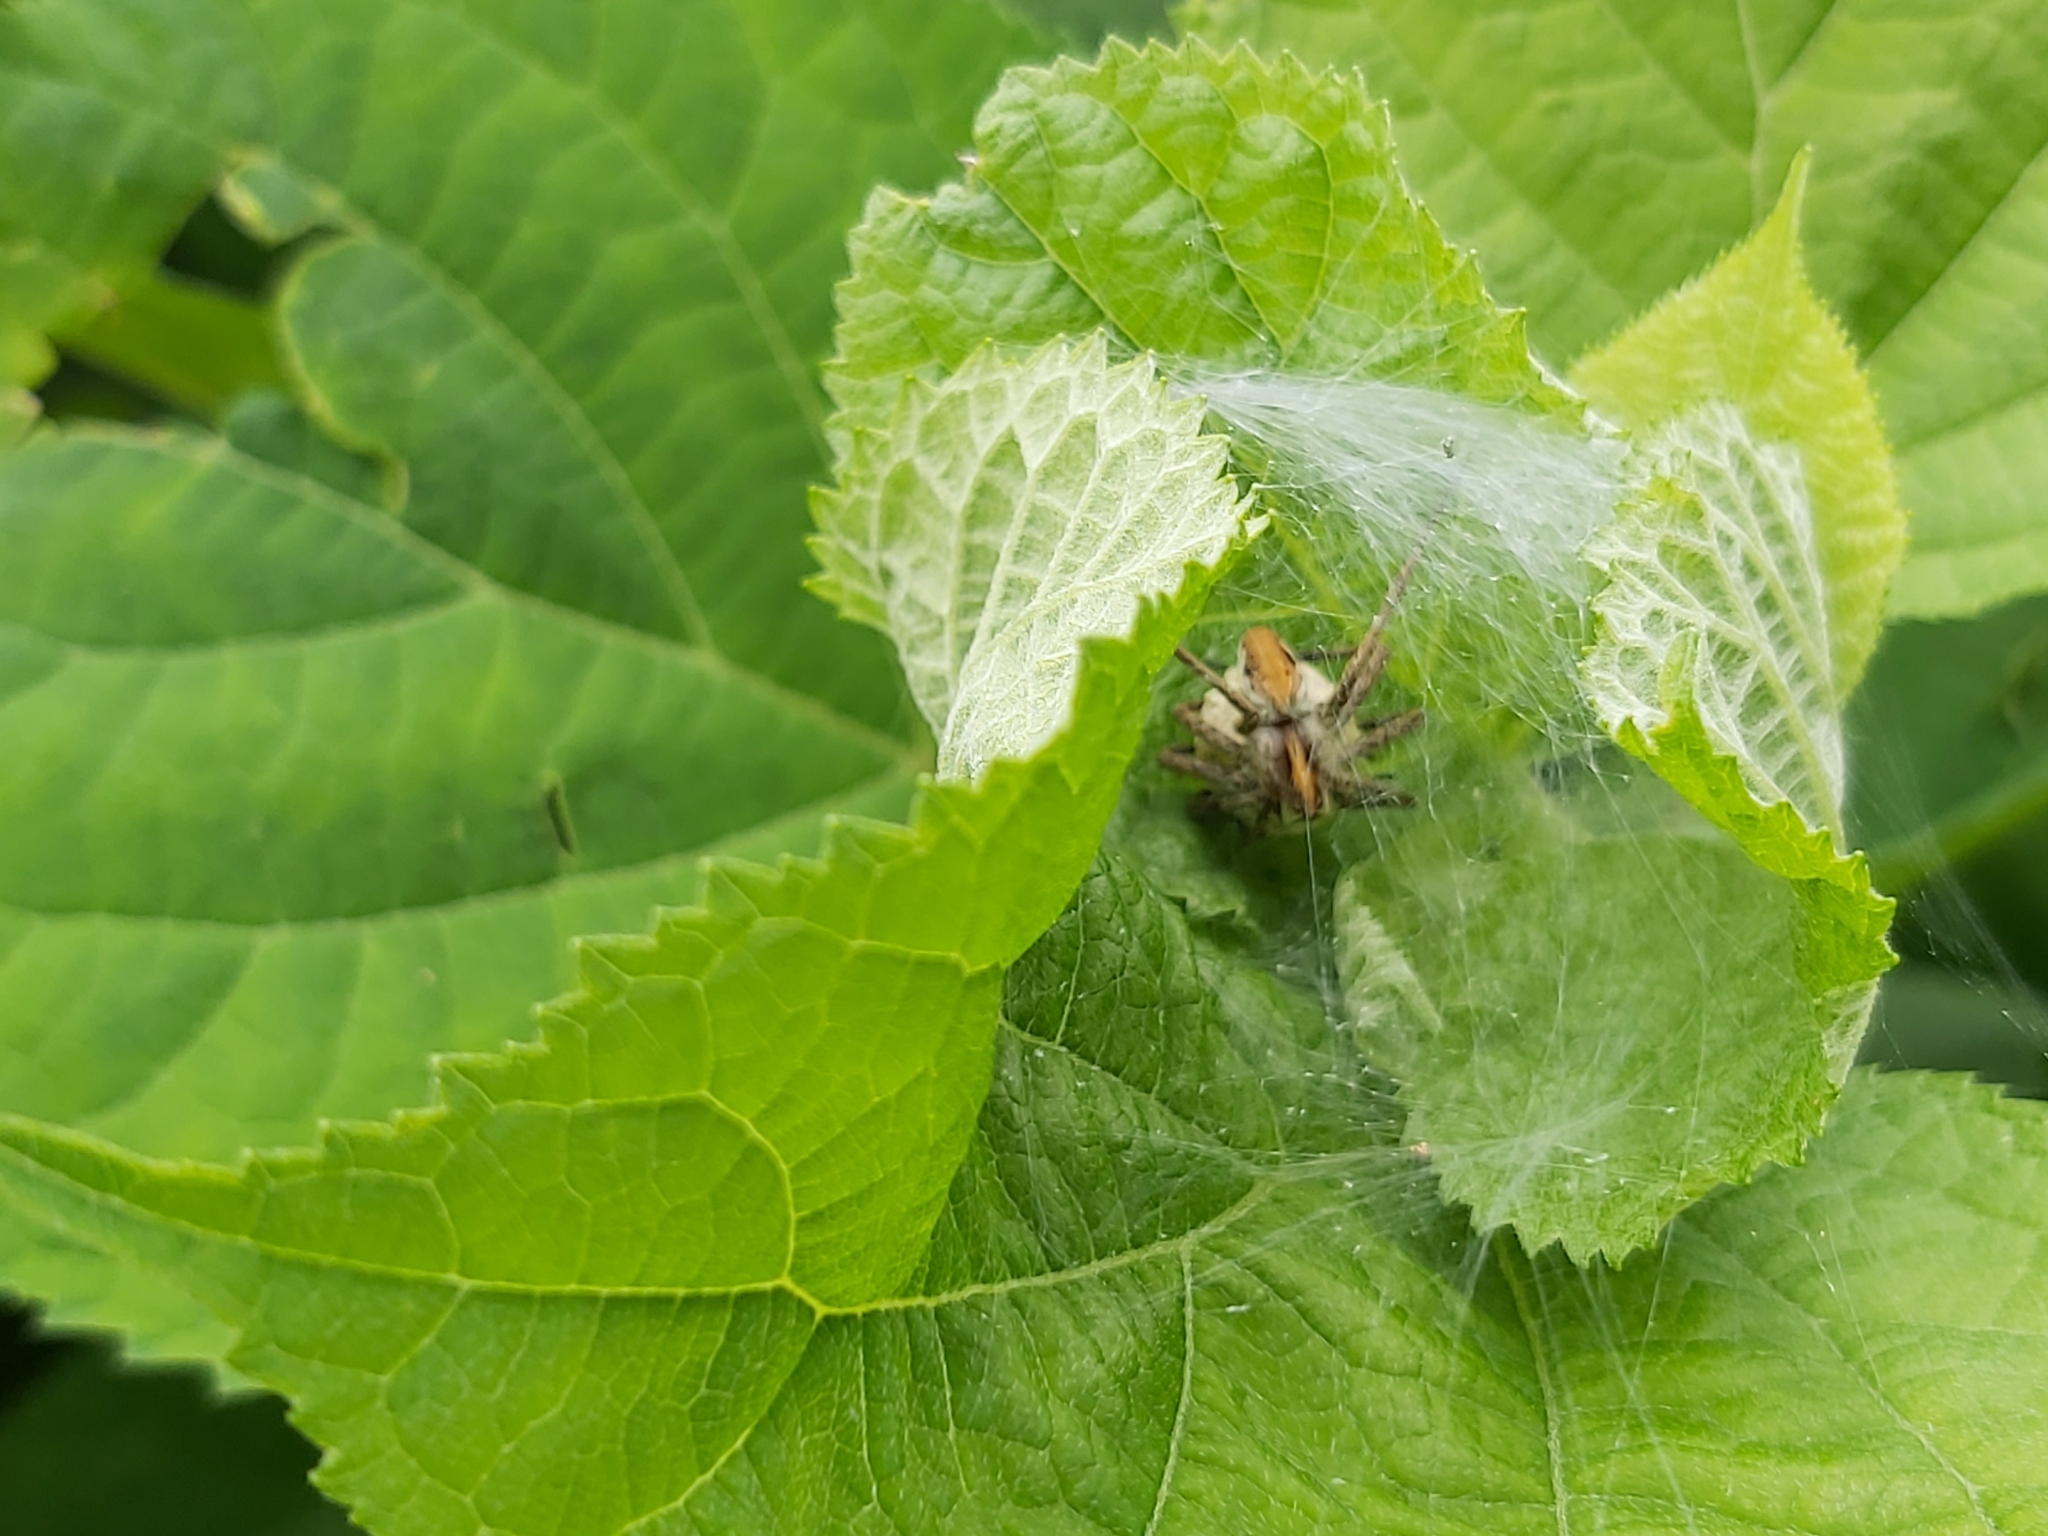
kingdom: Animalia
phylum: Arthropoda
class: Arachnida
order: Araneae
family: Pisauridae
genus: Pisaura
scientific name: Pisaura mirabilis
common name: Tent spider
